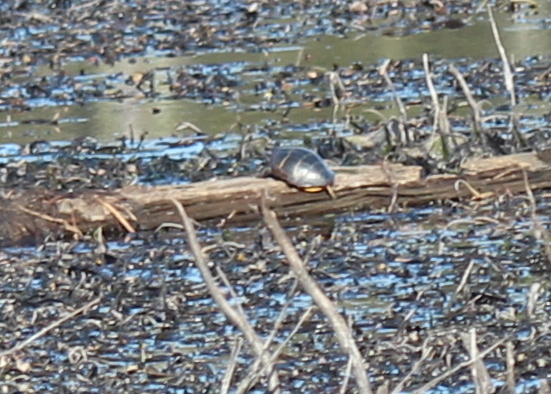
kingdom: Animalia
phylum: Chordata
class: Testudines
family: Emydidae
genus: Chrysemys
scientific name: Chrysemys picta
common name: Painted turtle
